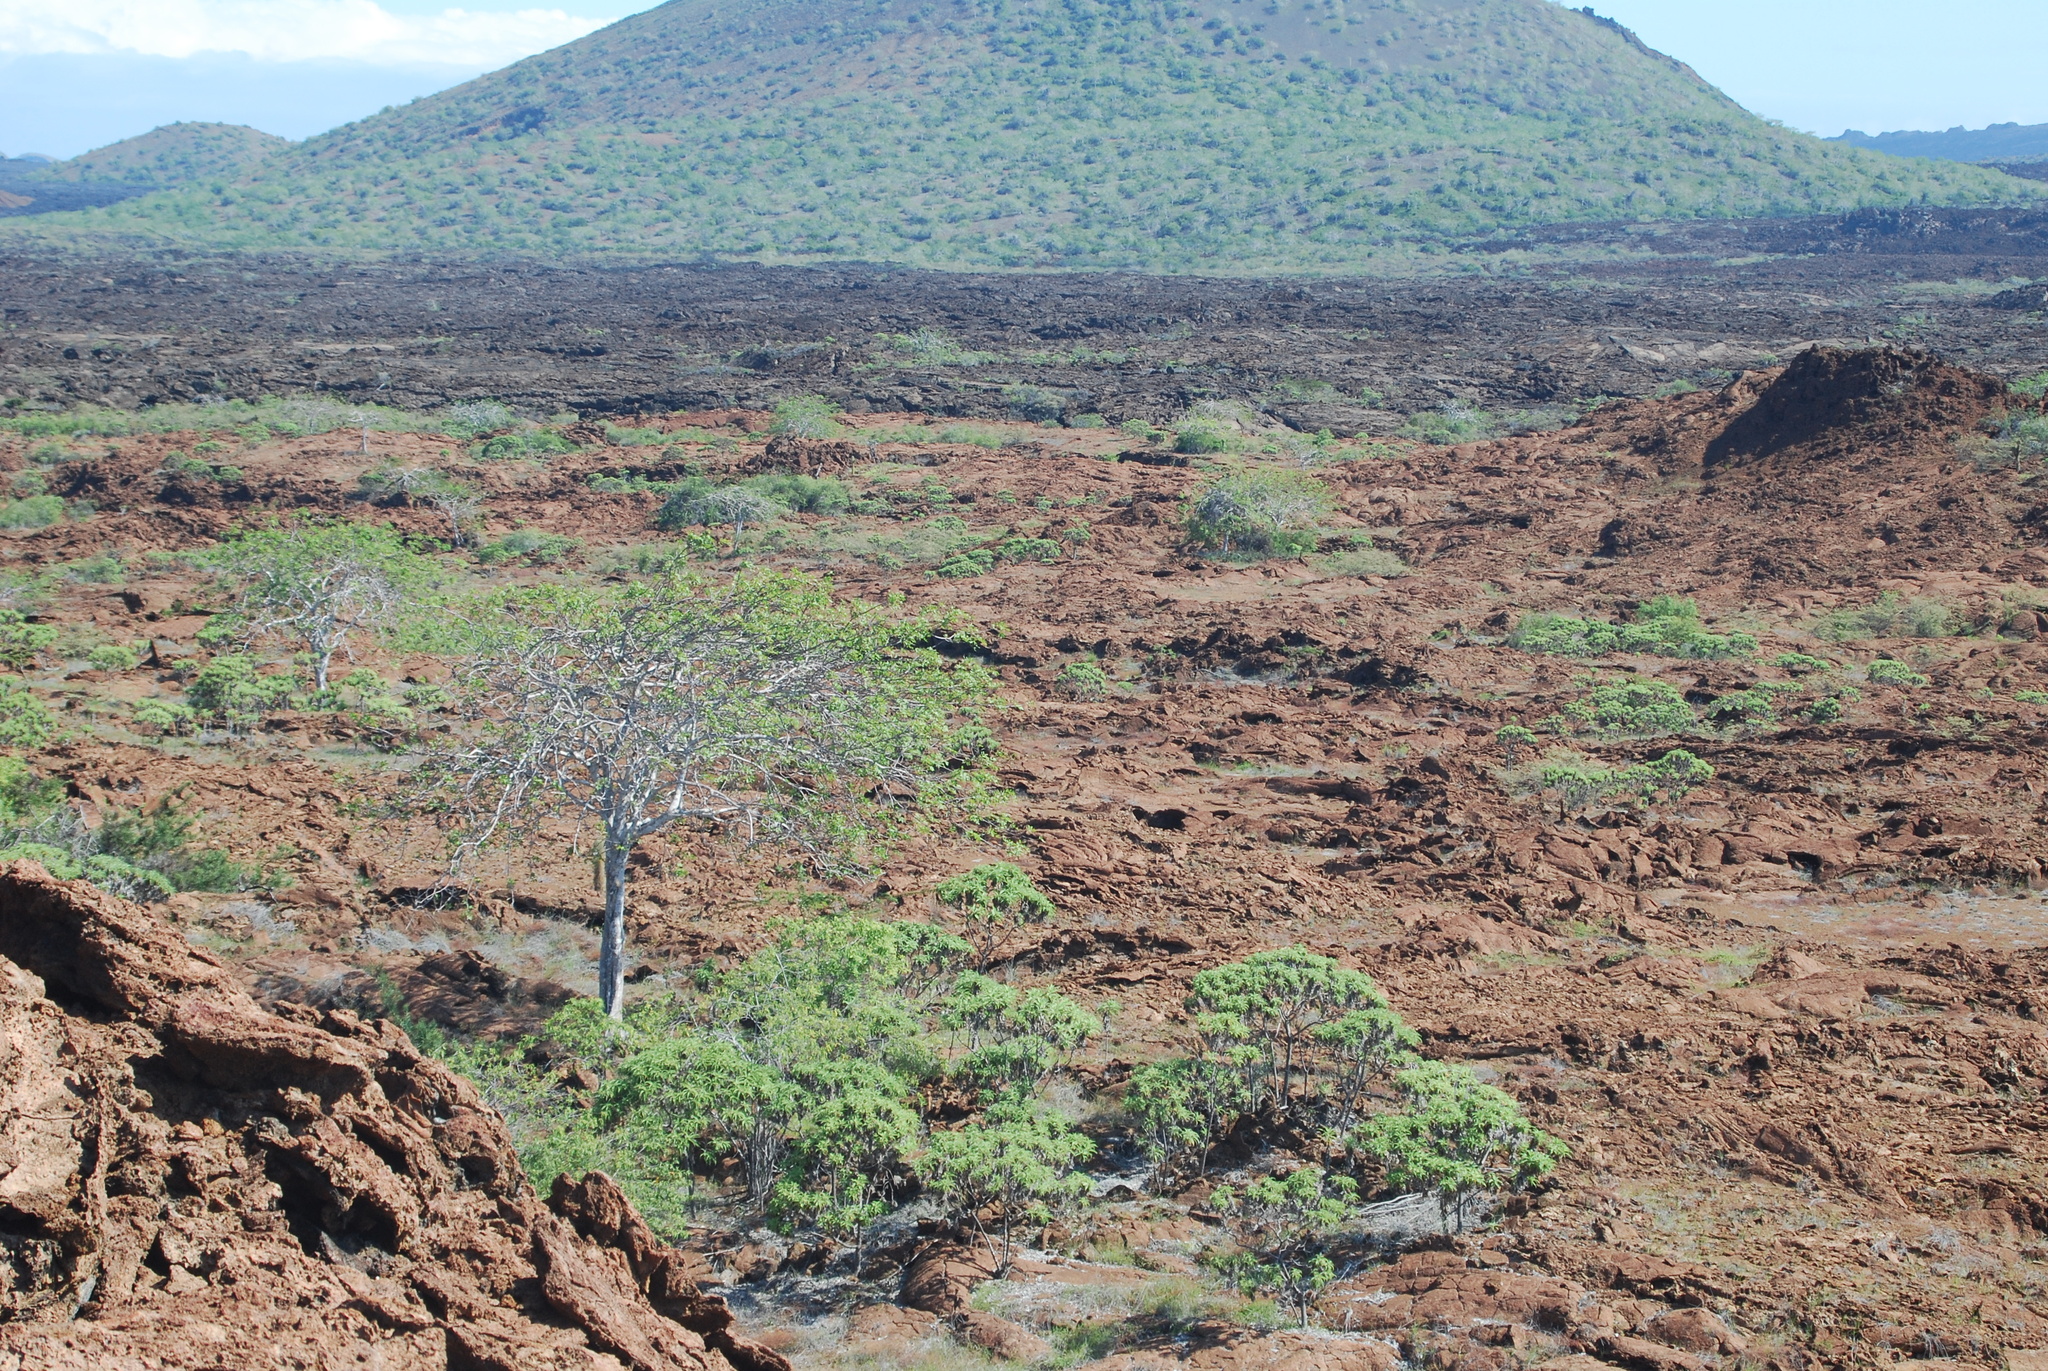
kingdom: Plantae
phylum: Tracheophyta
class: Magnoliopsida
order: Sapindales
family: Burseraceae
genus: Bursera
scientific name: Bursera graveolens
